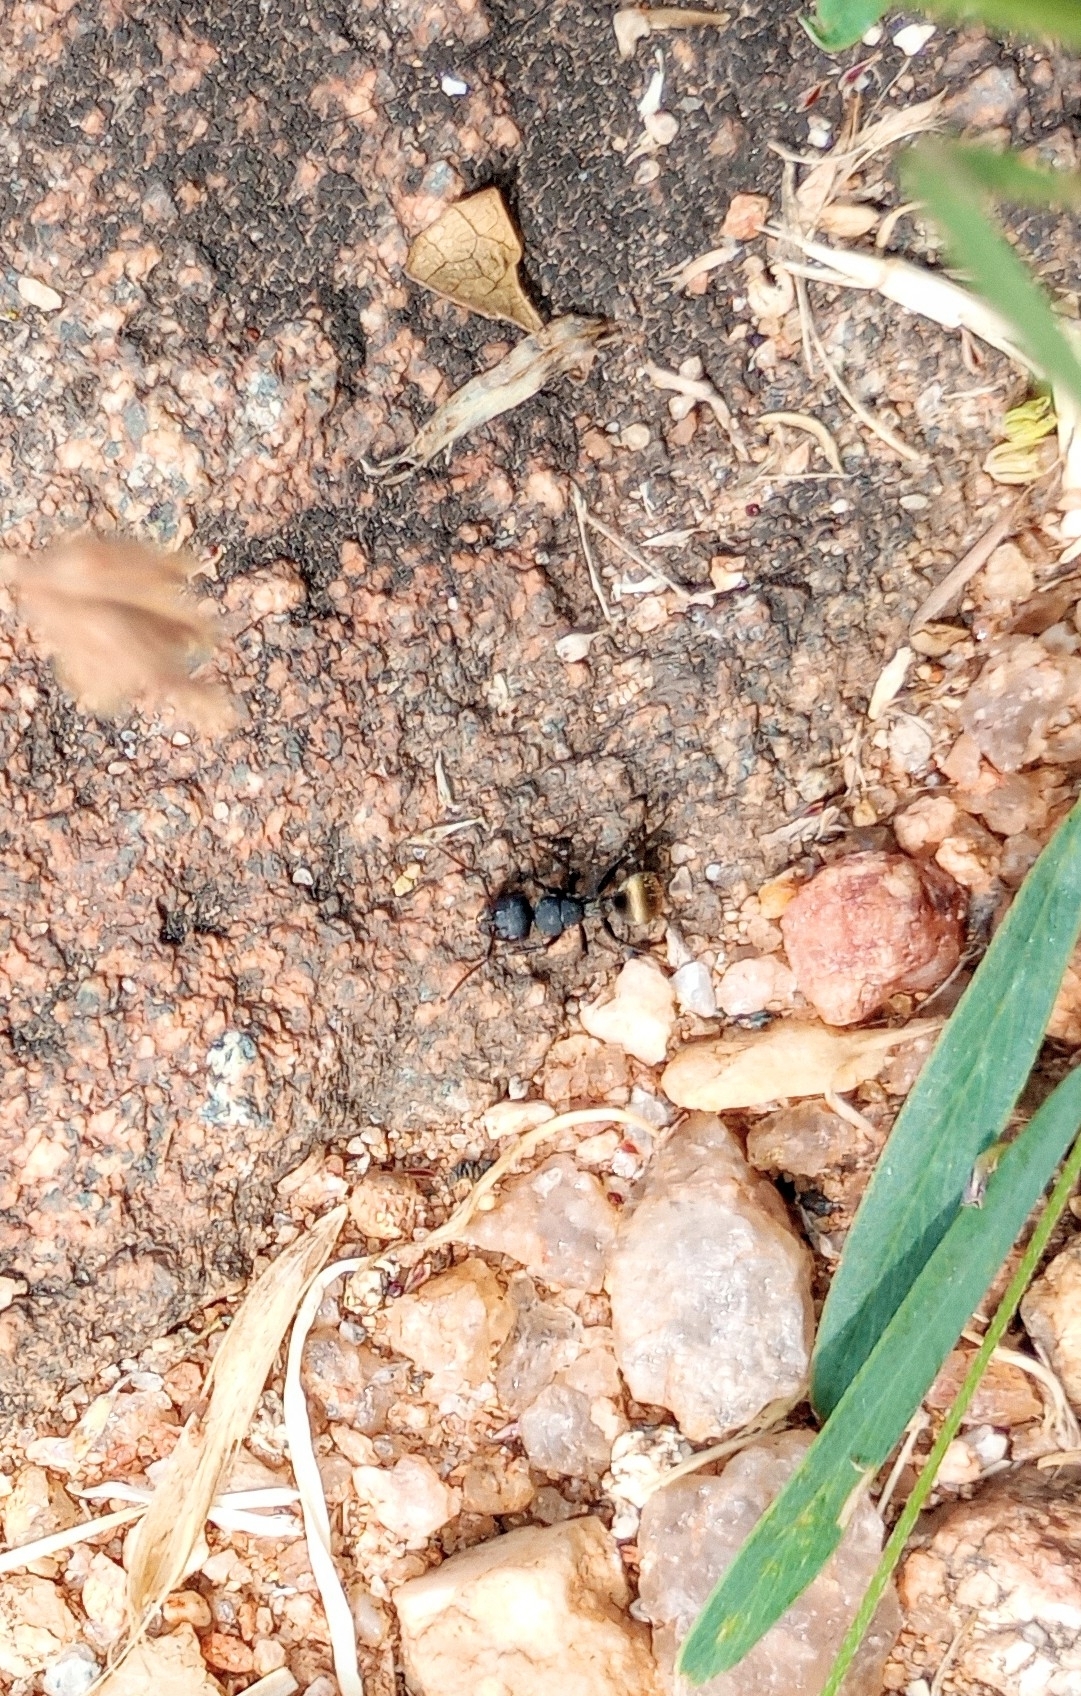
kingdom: Animalia
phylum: Arthropoda
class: Insecta
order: Hymenoptera
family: Formicidae
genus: Camponotus
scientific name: Camponotus sericeus
